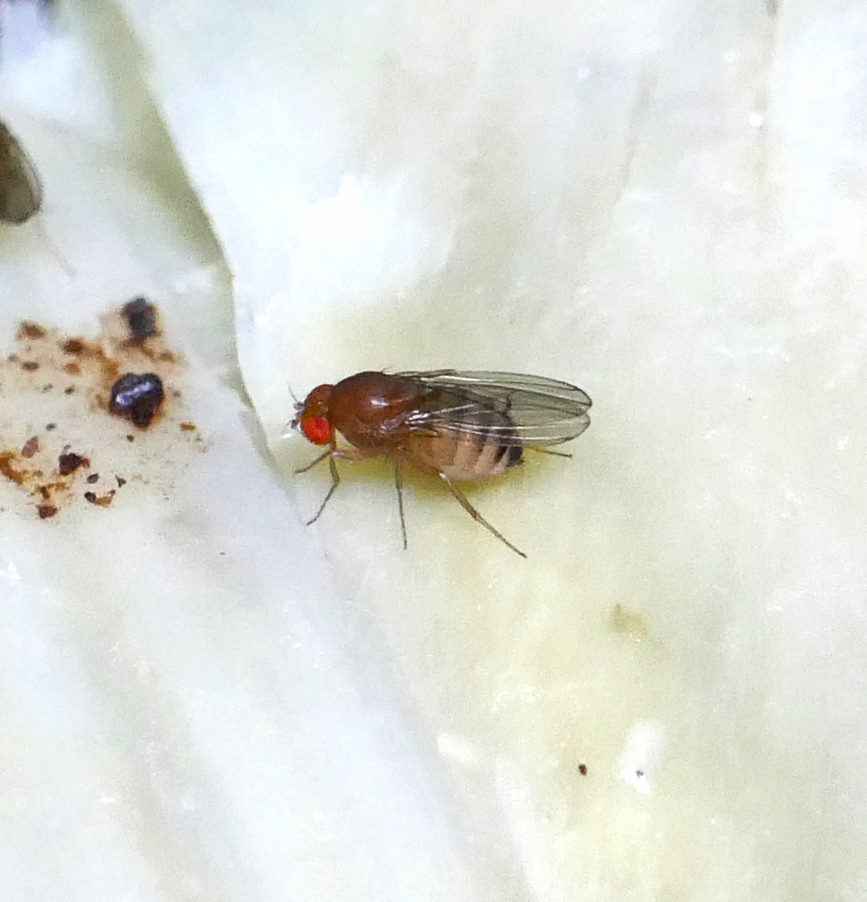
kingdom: Animalia
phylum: Arthropoda
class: Insecta
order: Diptera
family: Drosophilidae
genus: Drosophila
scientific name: Drosophila immigrans
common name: Pomace fly
